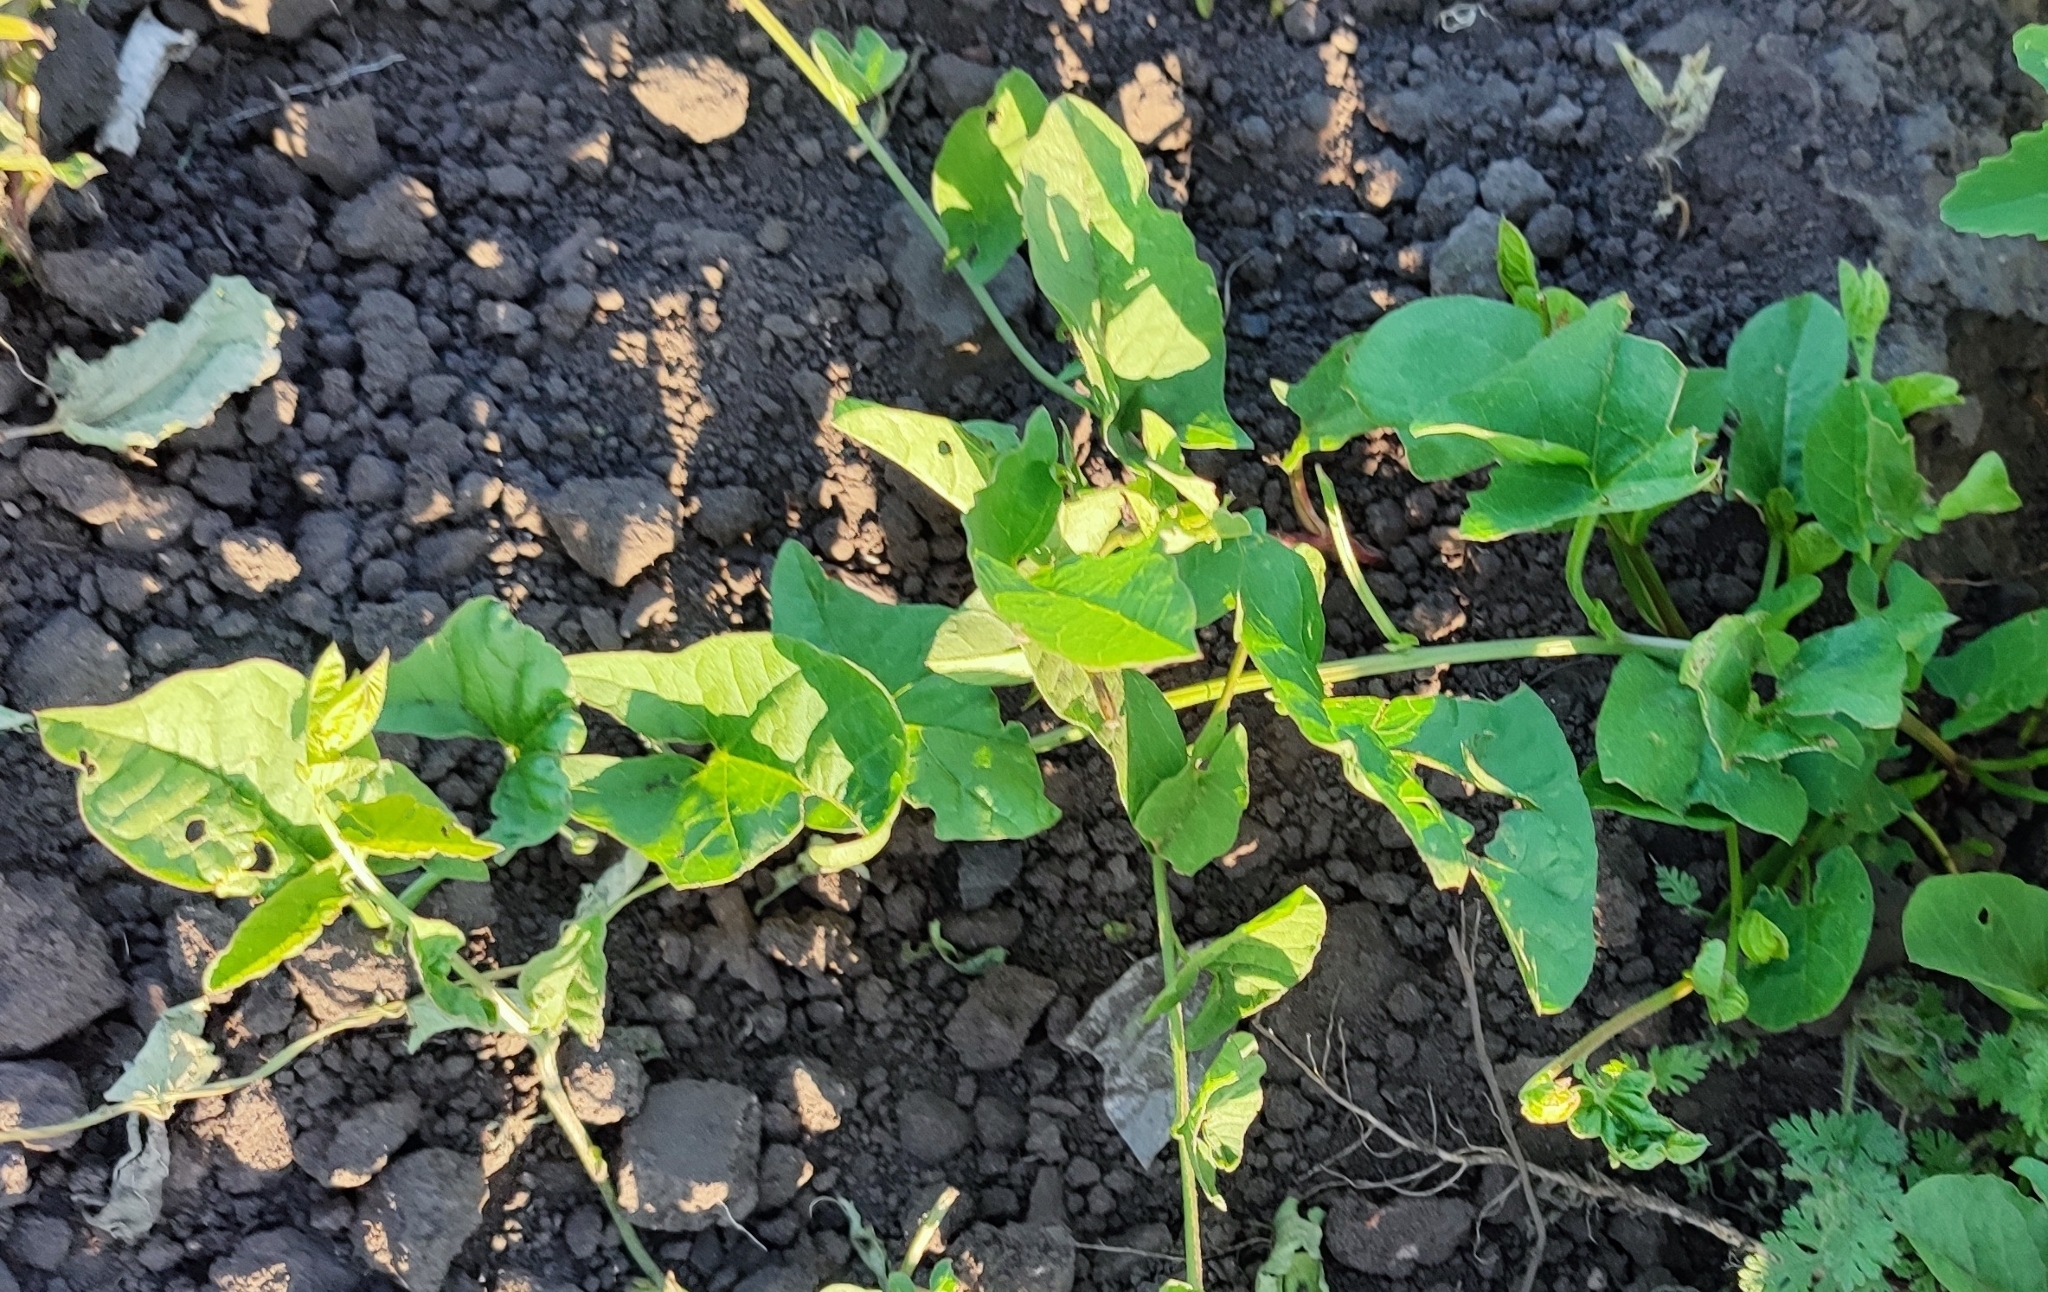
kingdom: Plantae
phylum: Tracheophyta
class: Magnoliopsida
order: Solanales
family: Convolvulaceae
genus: Convolvulus
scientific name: Convolvulus arvensis
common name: Field bindweed
